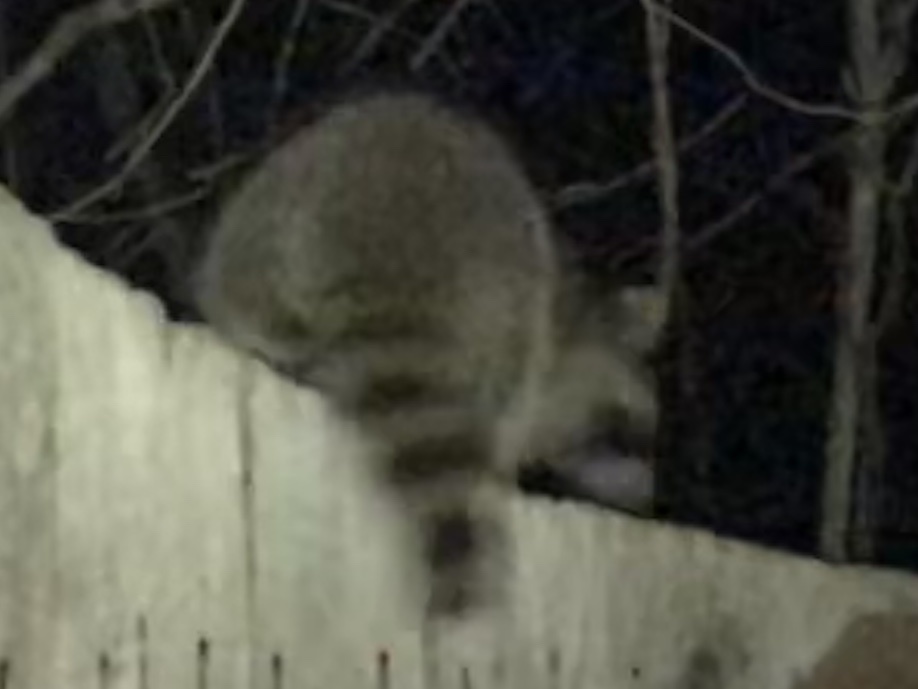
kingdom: Animalia
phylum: Chordata
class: Mammalia
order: Carnivora
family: Procyonidae
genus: Procyon
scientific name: Procyon lotor
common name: Raccoon
